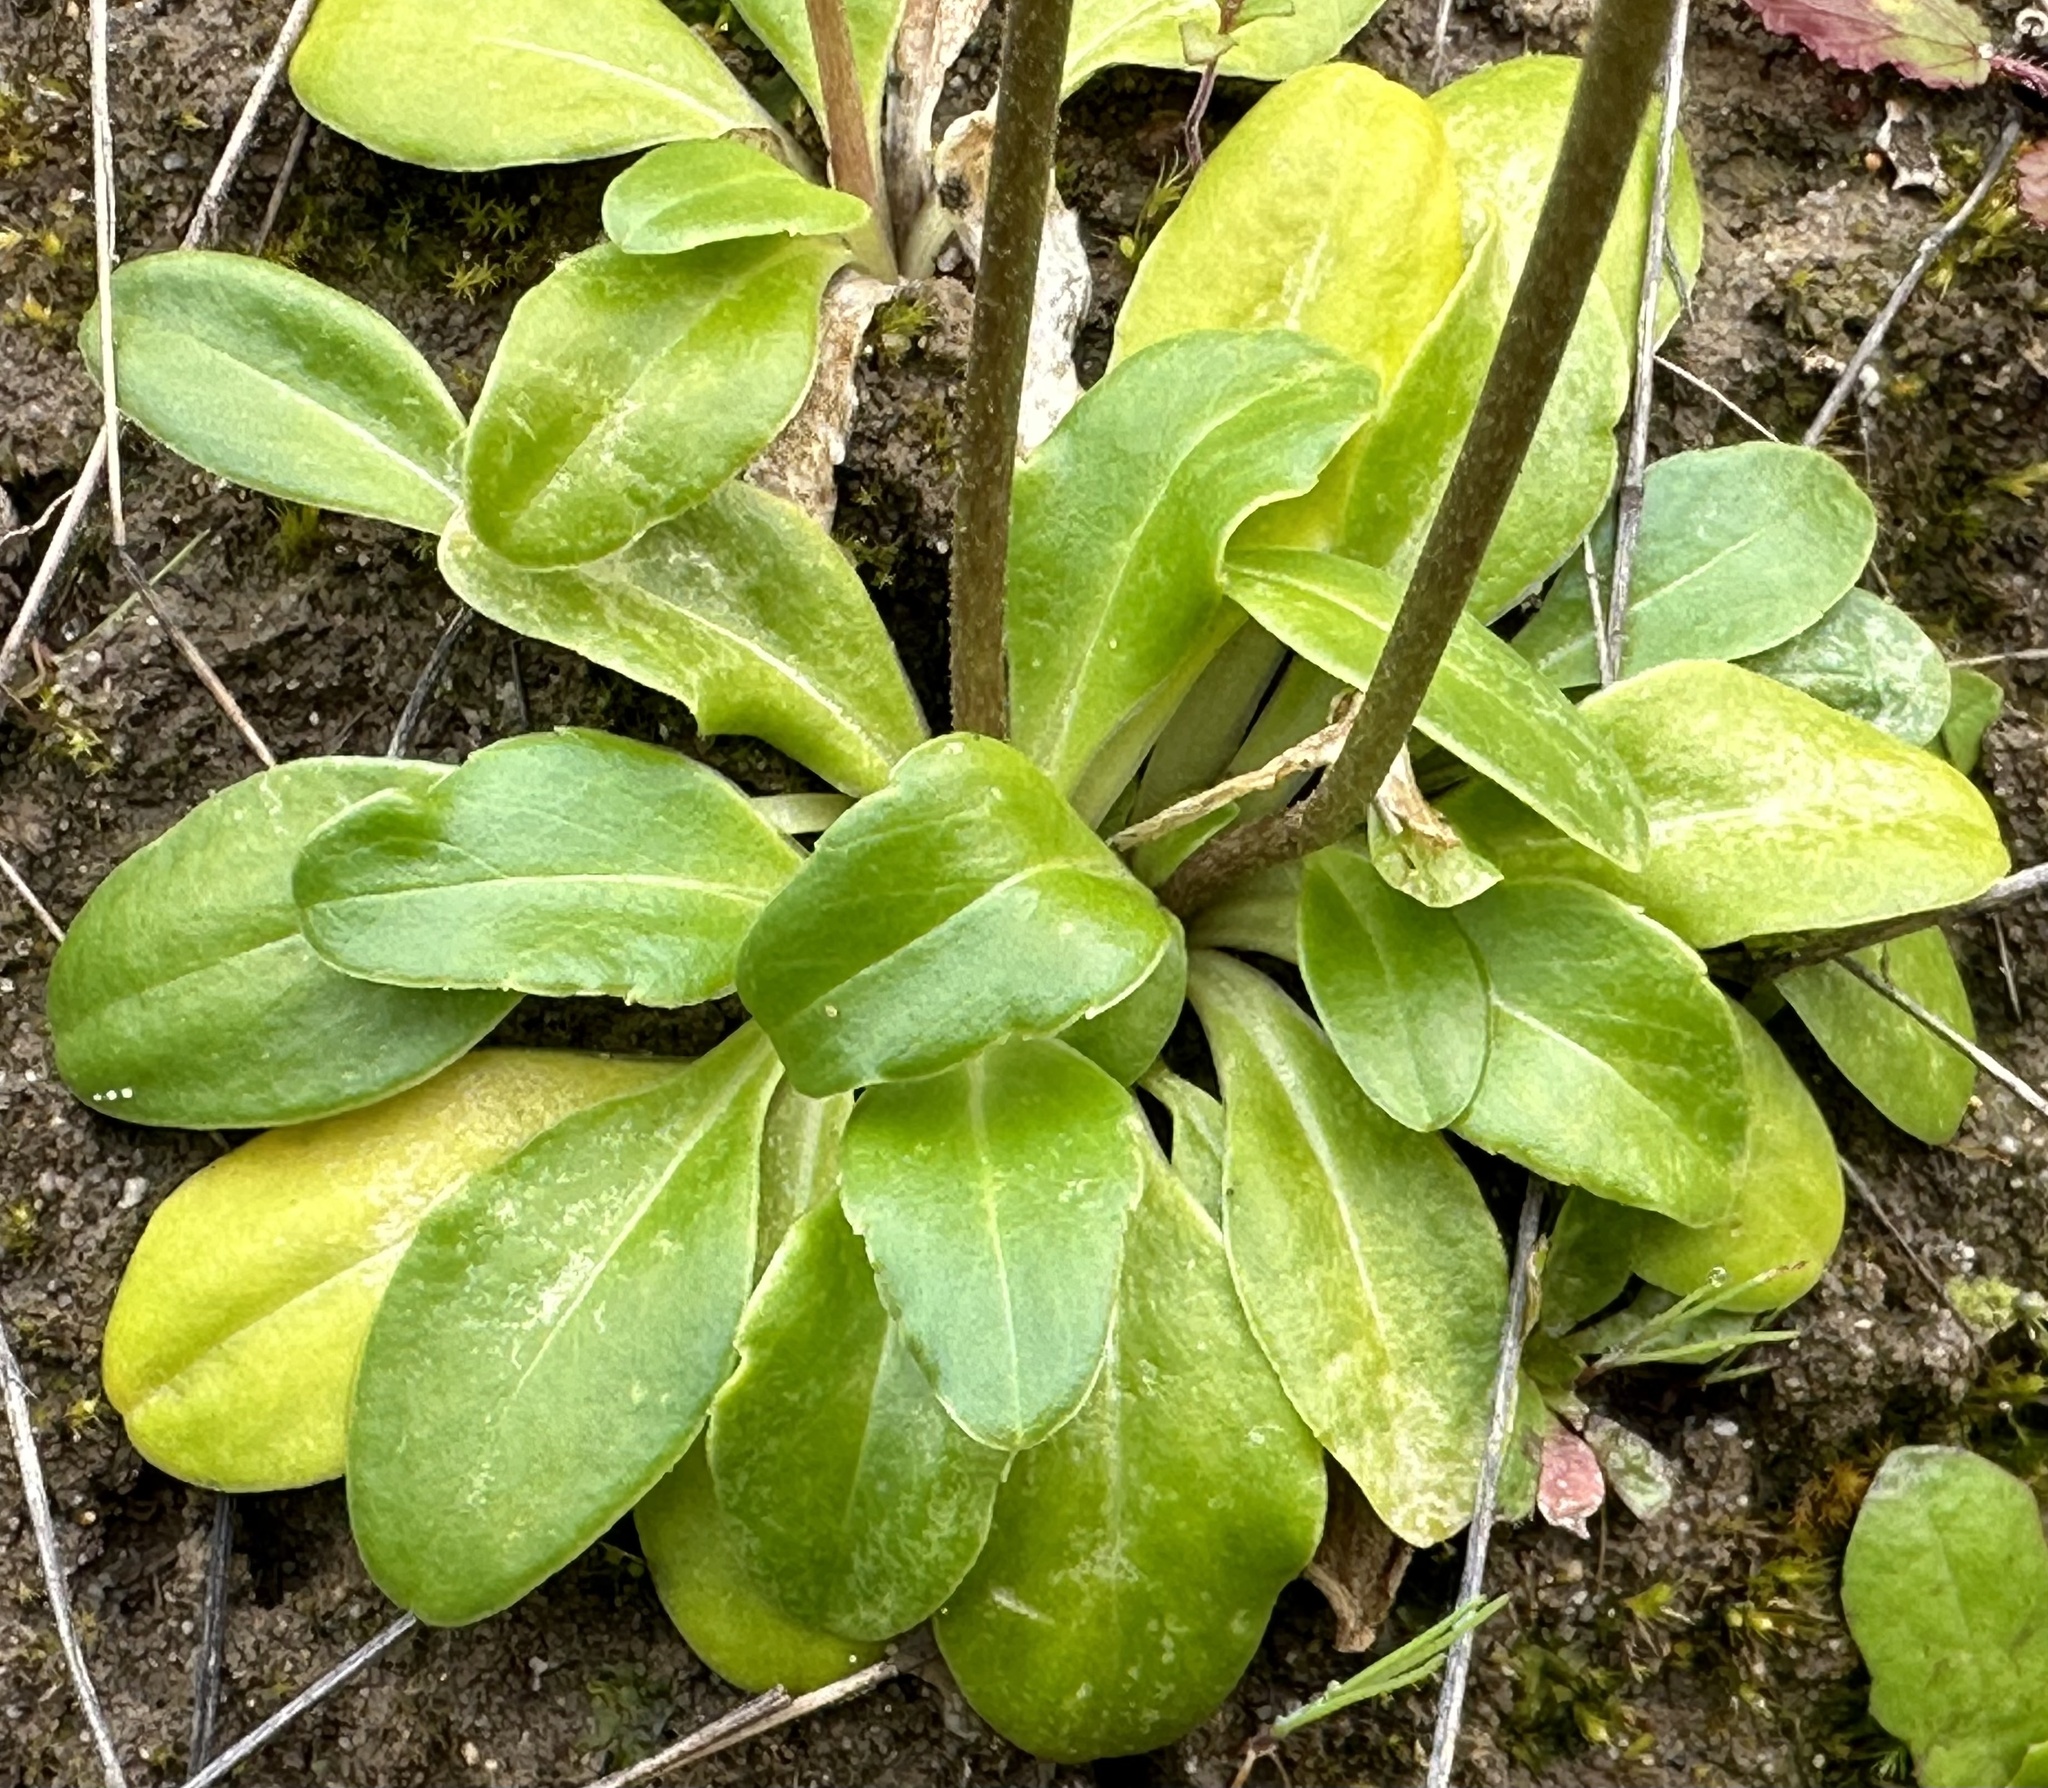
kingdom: Plantae
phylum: Tracheophyta
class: Magnoliopsida
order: Ericales
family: Primulaceae
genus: Dodecatheon
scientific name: Dodecatheon clevelandii
